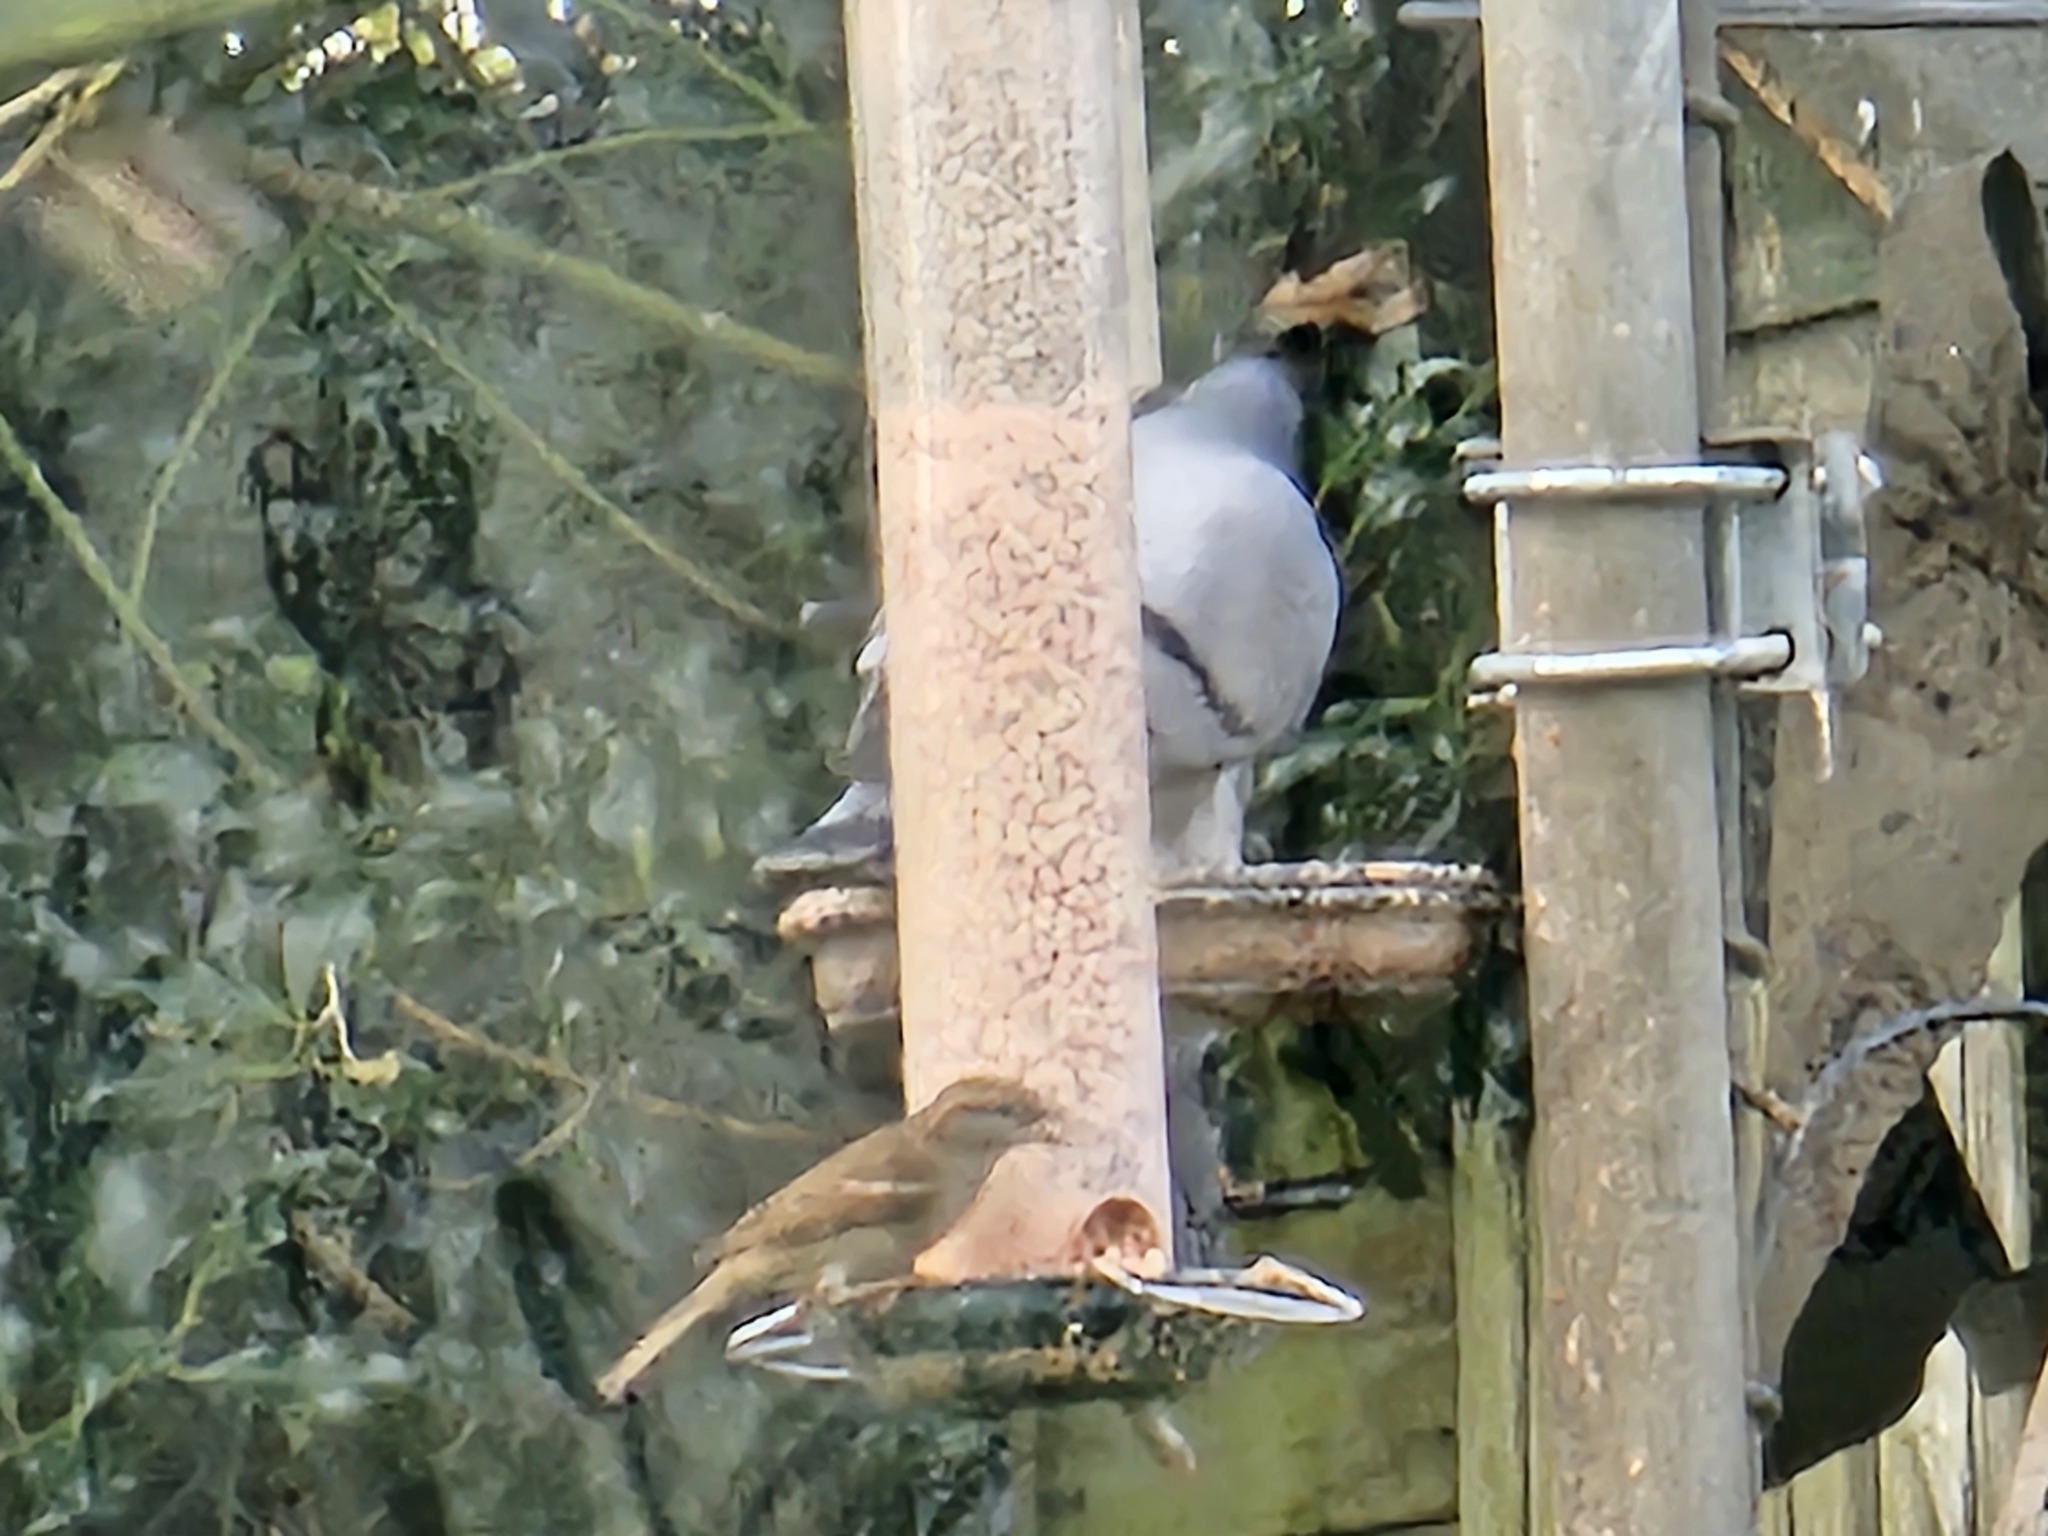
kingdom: Animalia
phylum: Chordata
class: Aves
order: Passeriformes
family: Passeridae
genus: Passer
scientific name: Passer domesticus
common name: House sparrow
